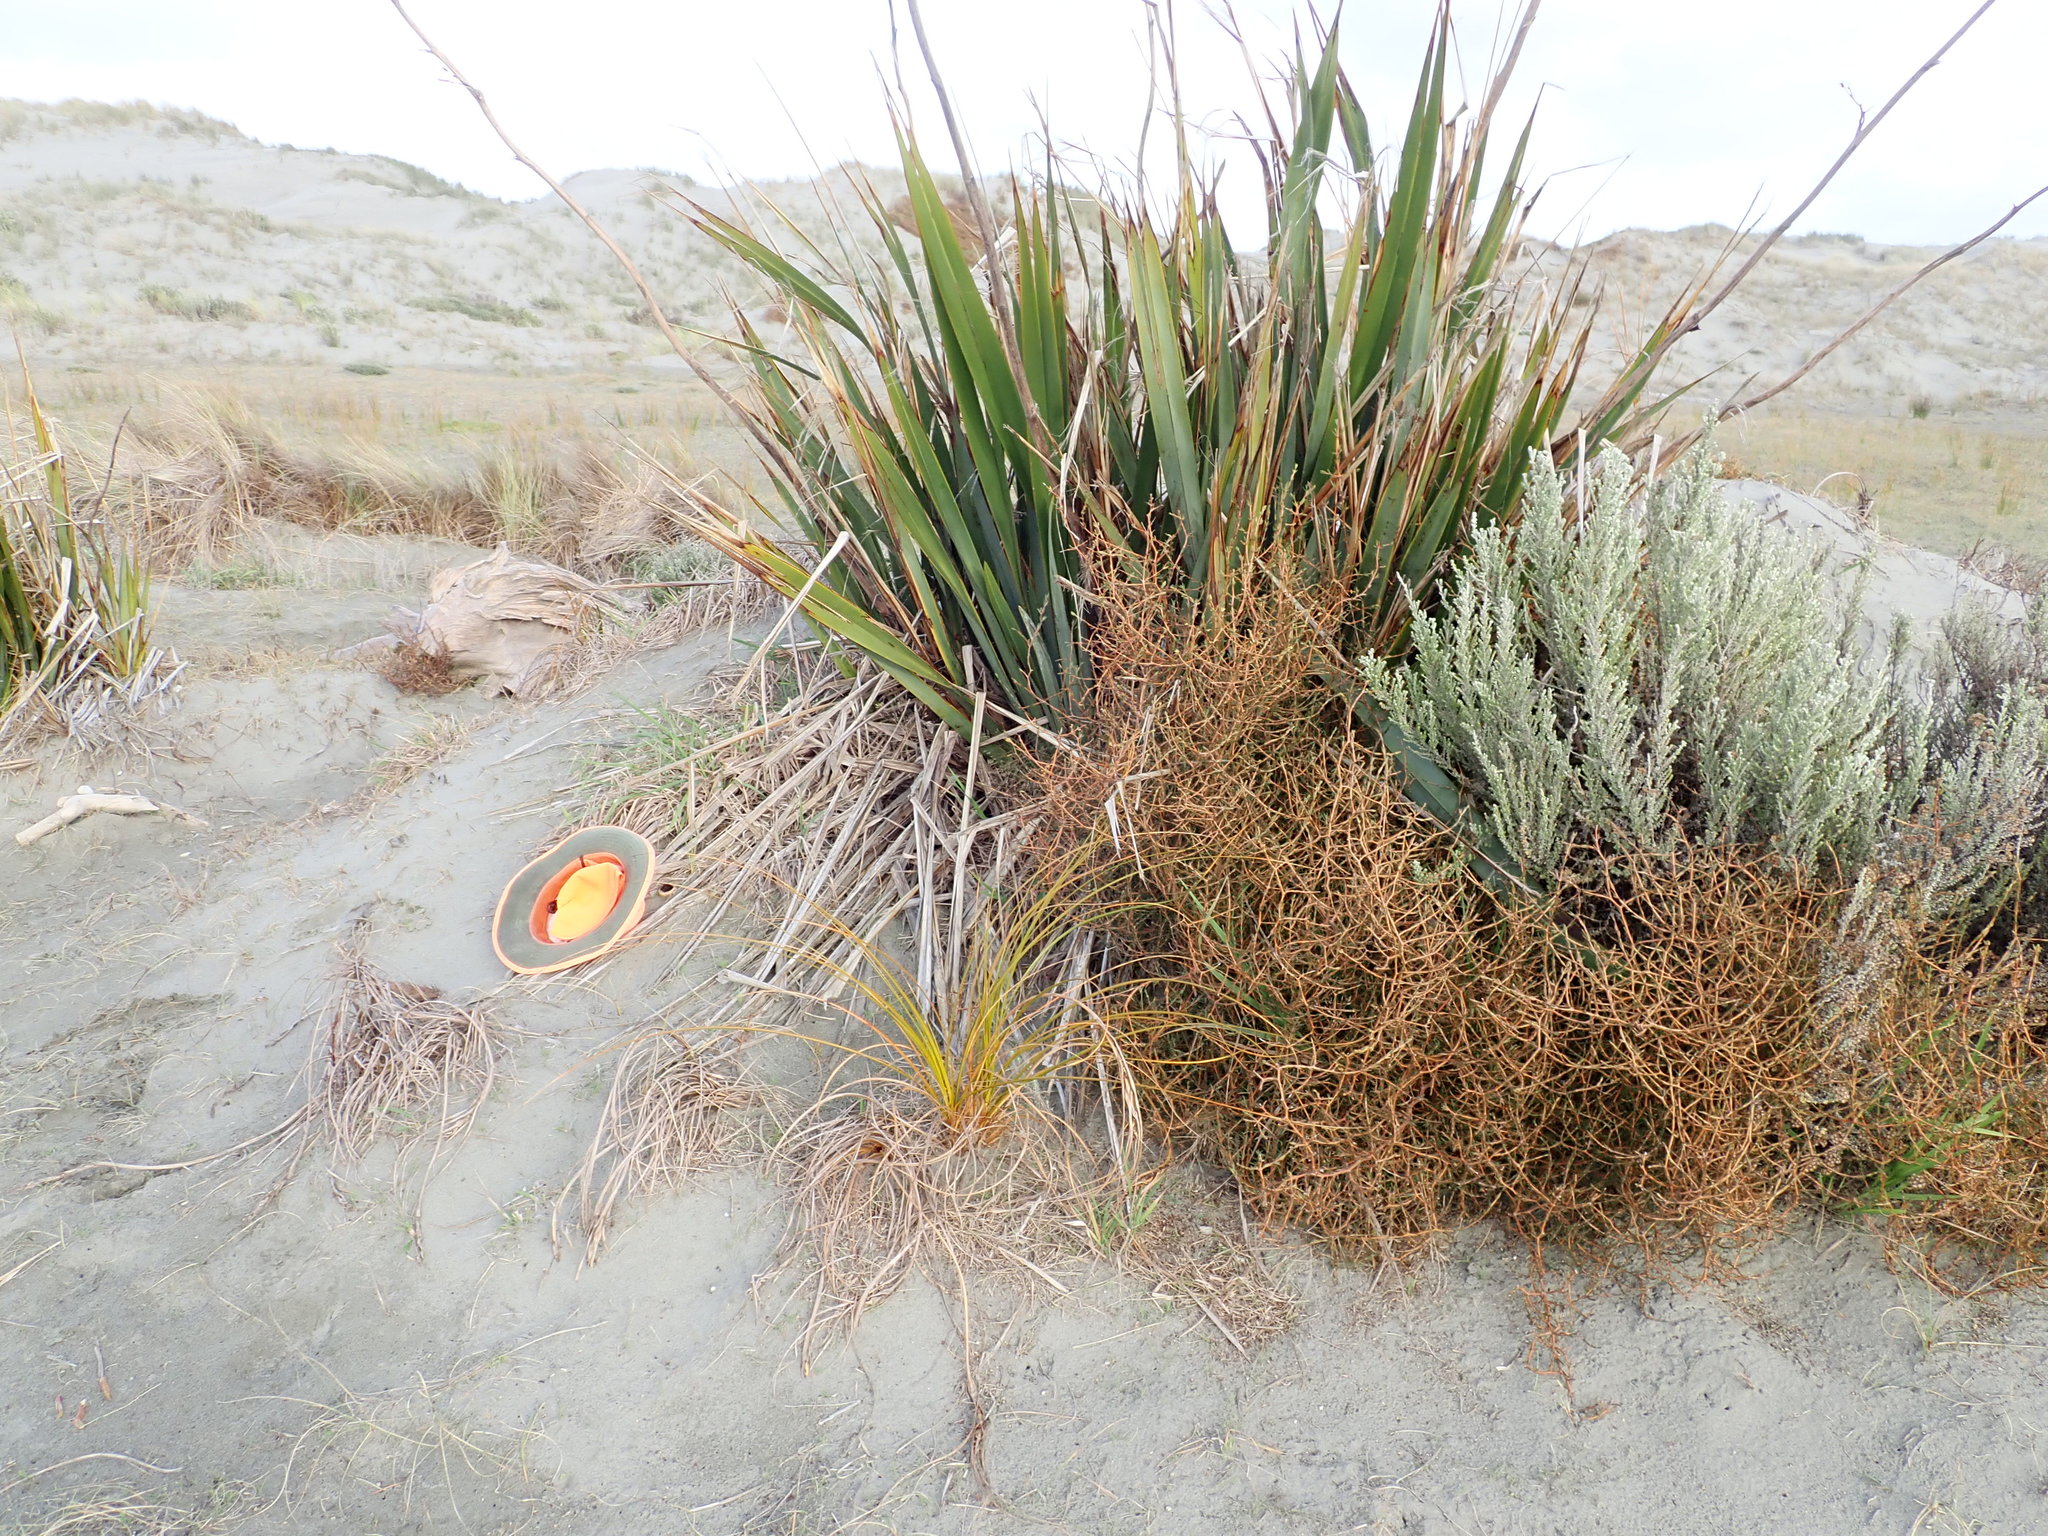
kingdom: Fungi
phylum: Ascomycota
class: Pezizomycetes
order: Pezizales
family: Pezizaceae
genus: Peziza
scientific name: Peziza oceanica
